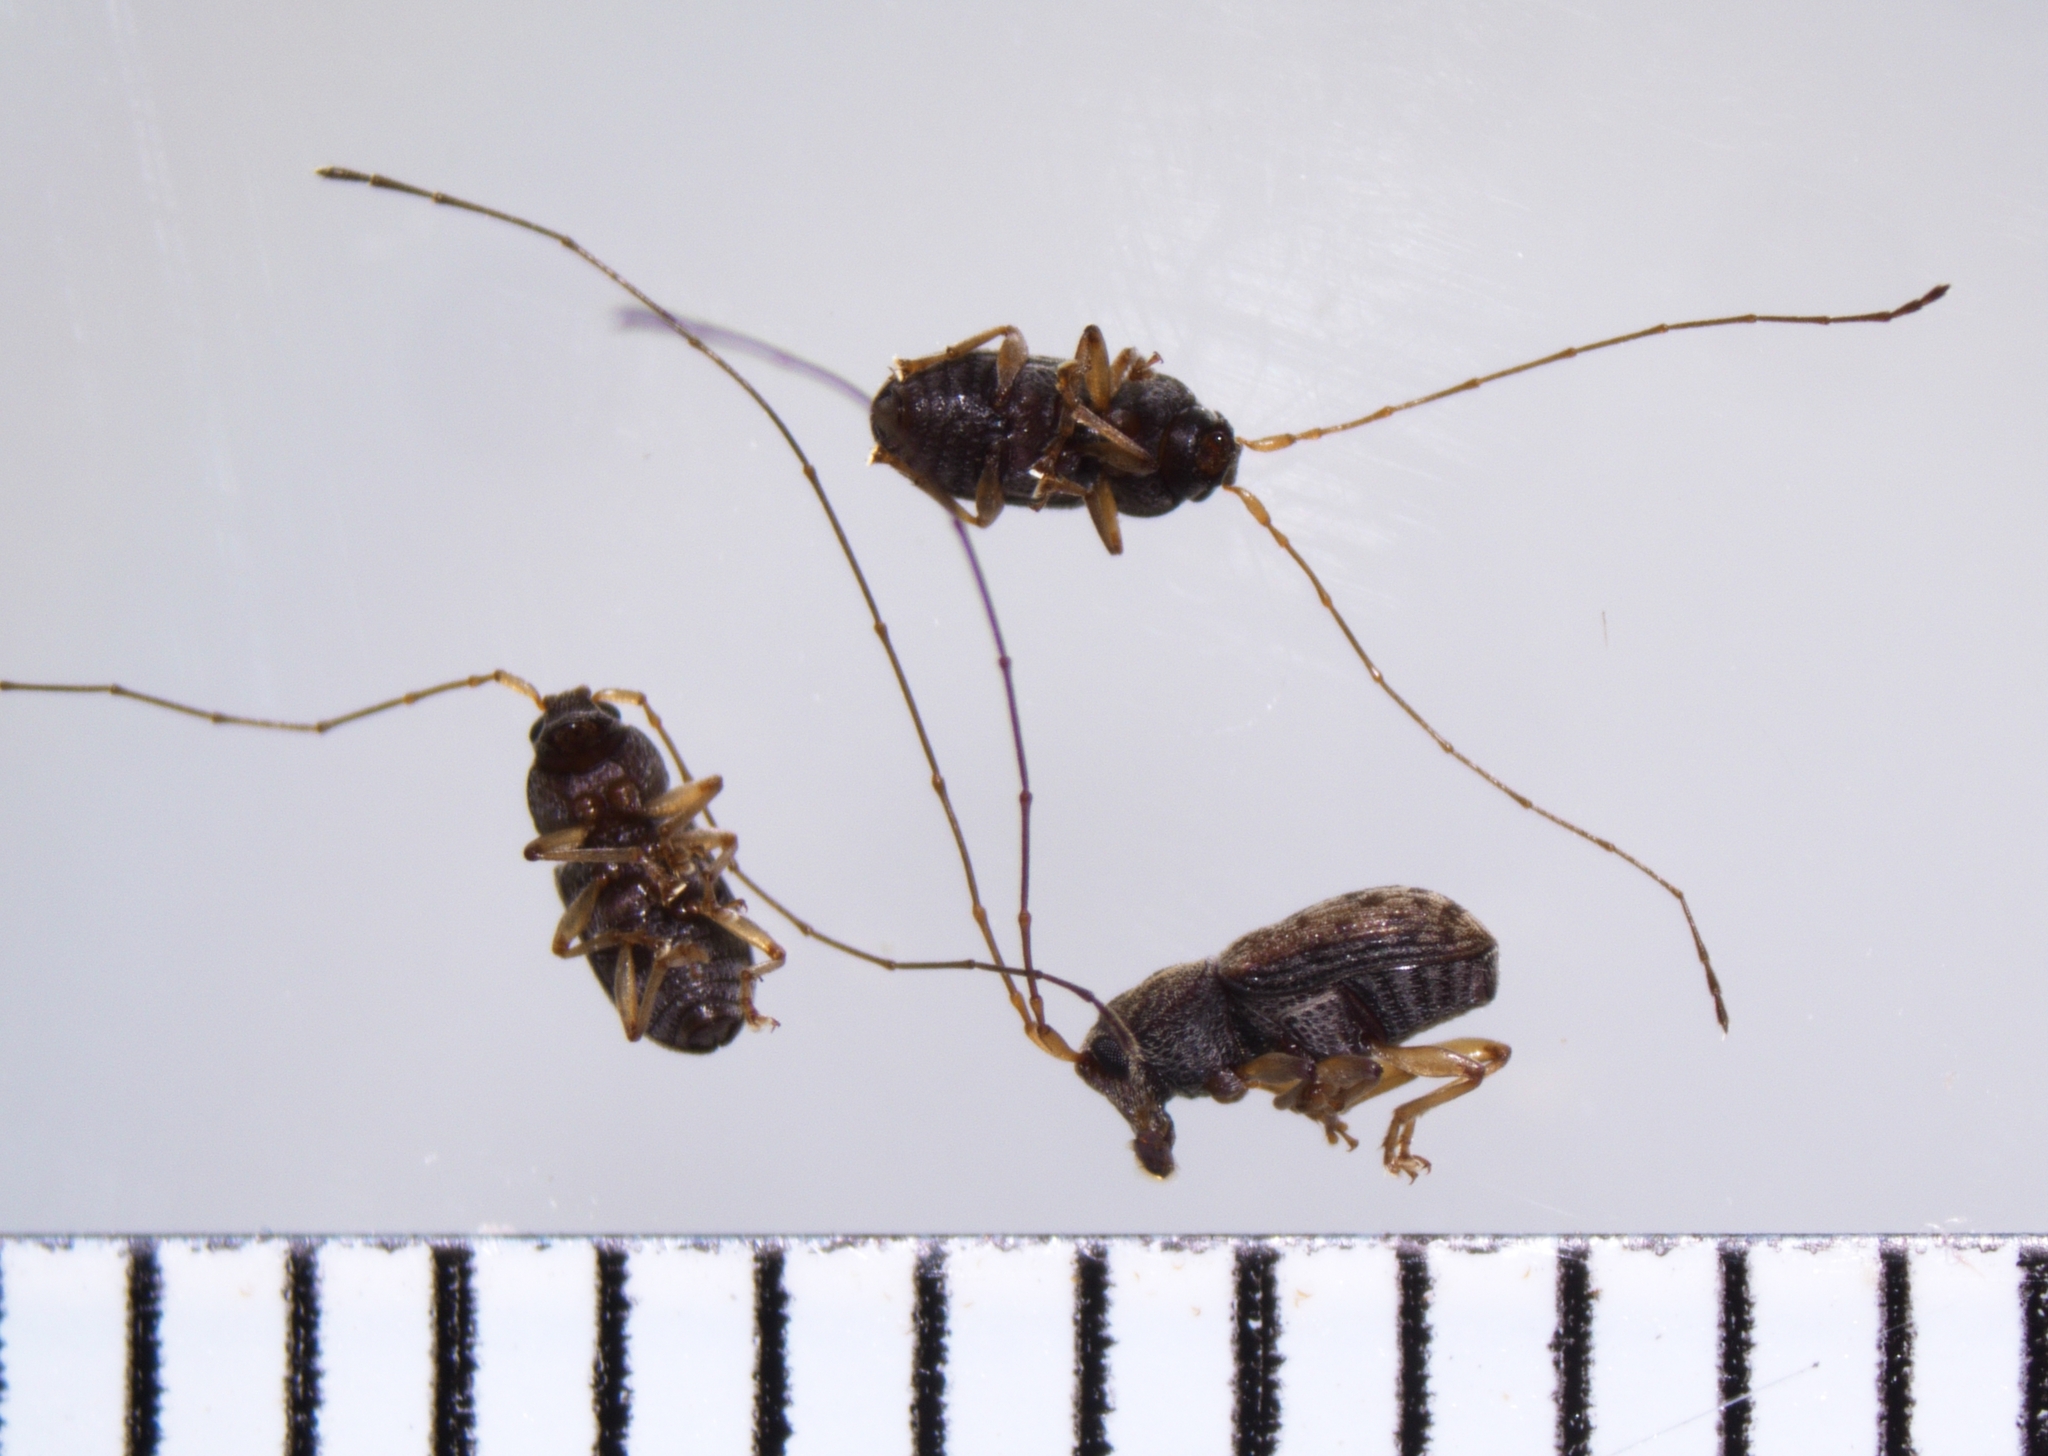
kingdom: Animalia
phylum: Arthropoda
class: Insecta
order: Coleoptera
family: Anthribidae
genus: Dinema
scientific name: Dinema filicornis
